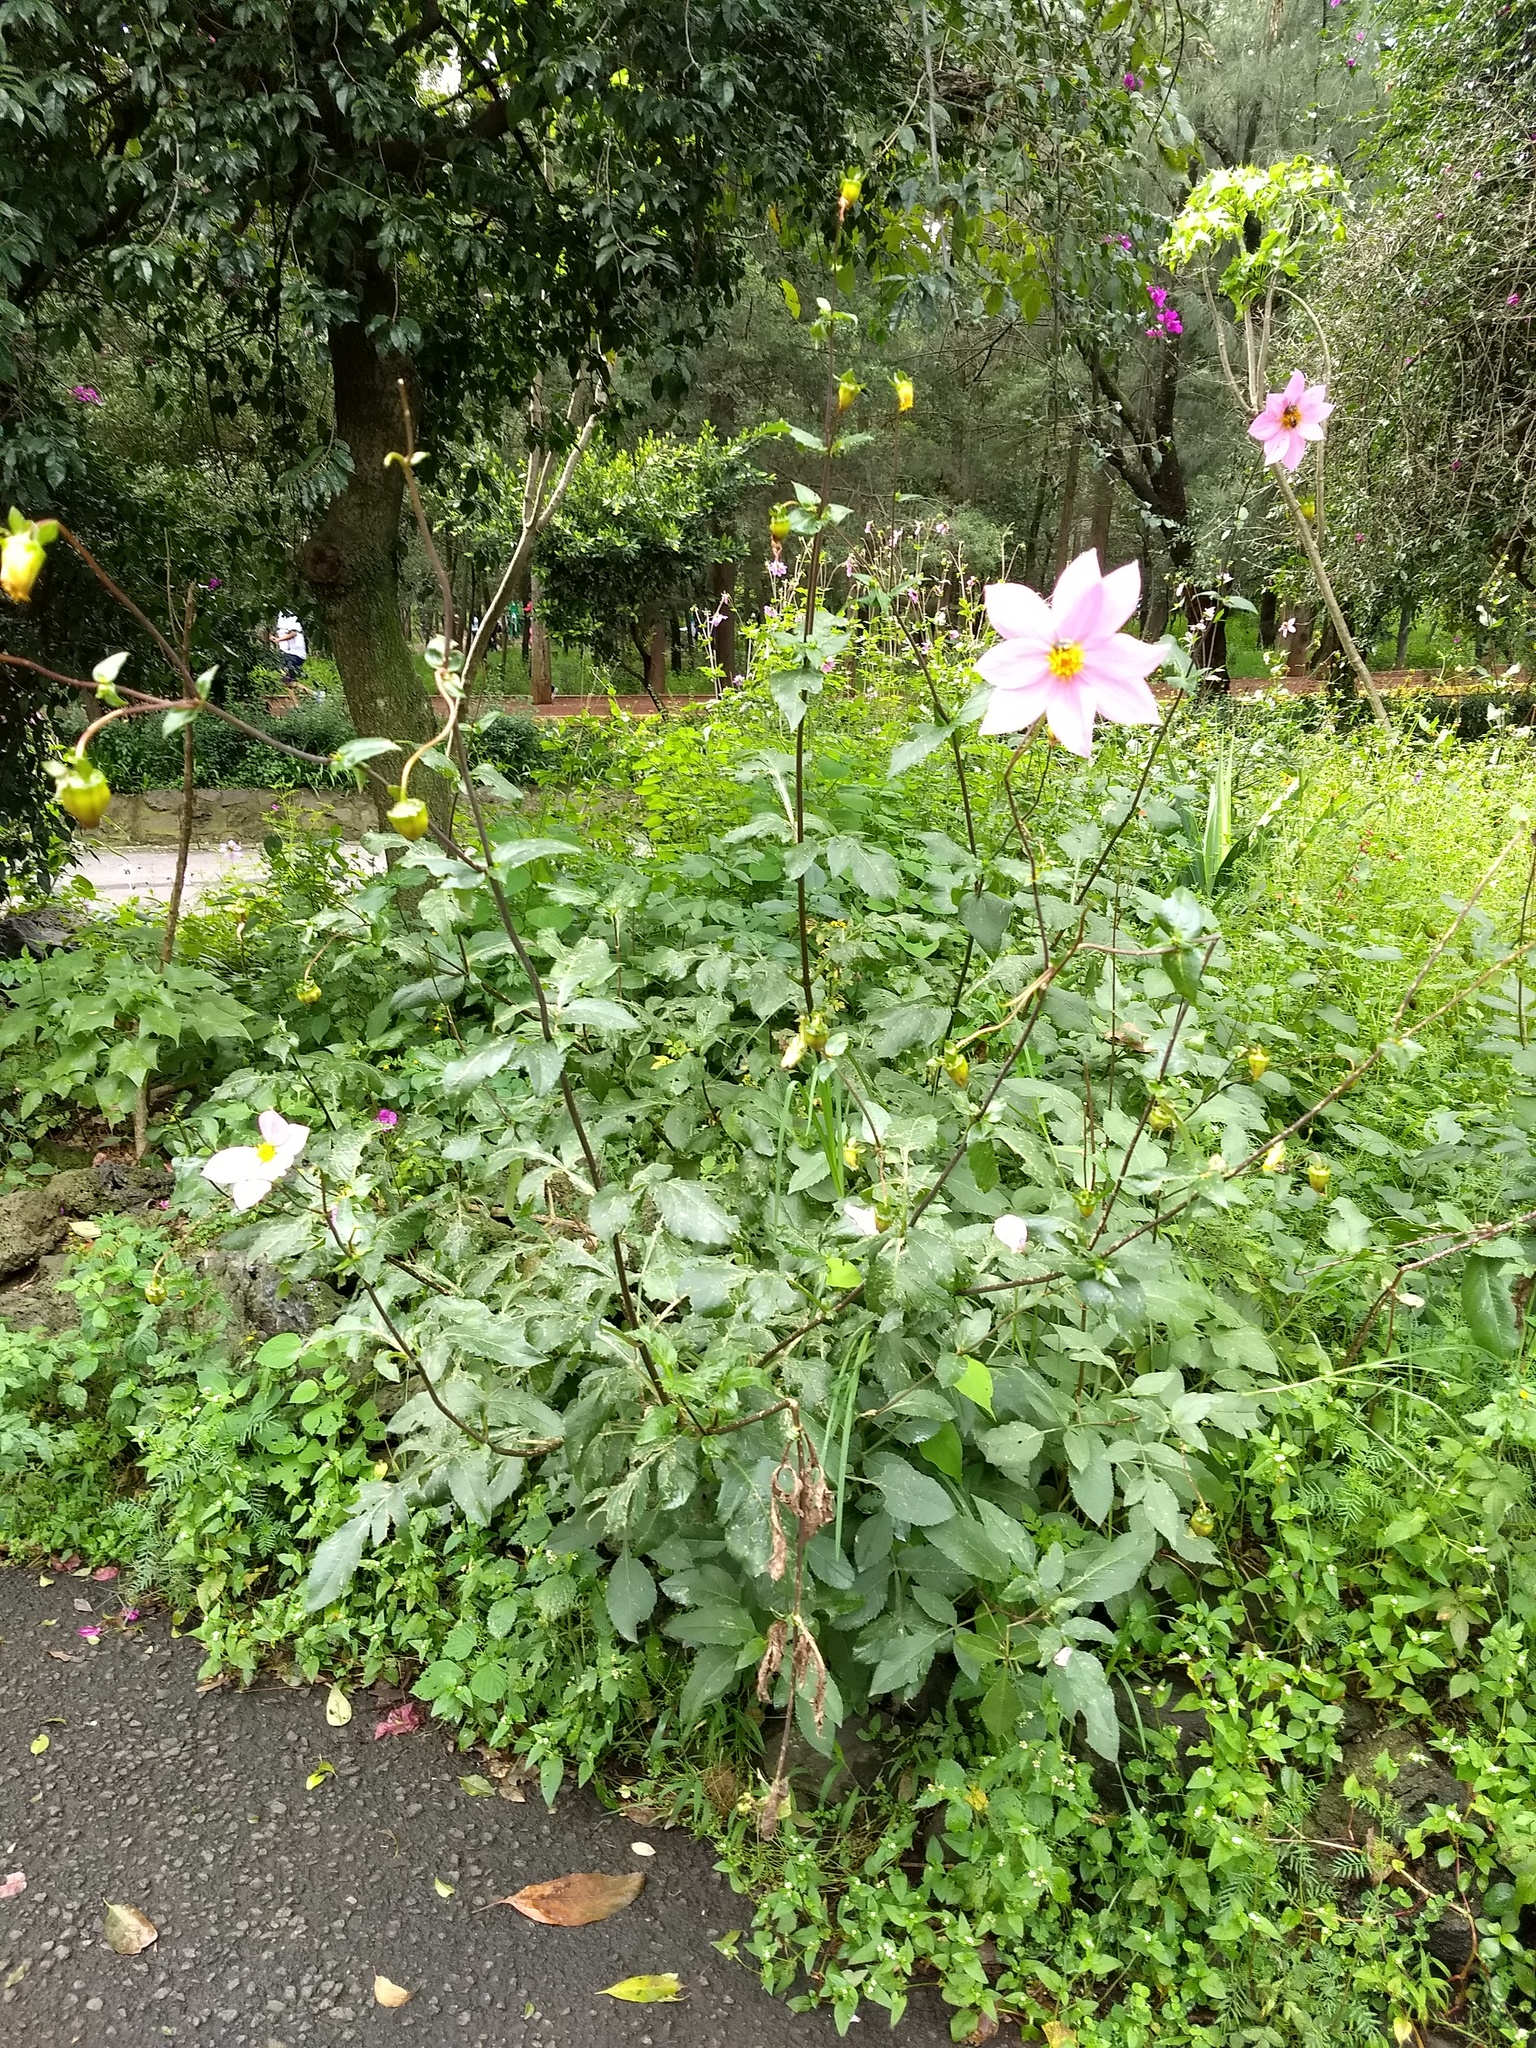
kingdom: Plantae
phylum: Tracheophyta
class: Magnoliopsida
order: Asterales
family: Asteraceae
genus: Dahlia
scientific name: Dahlia imperialis
